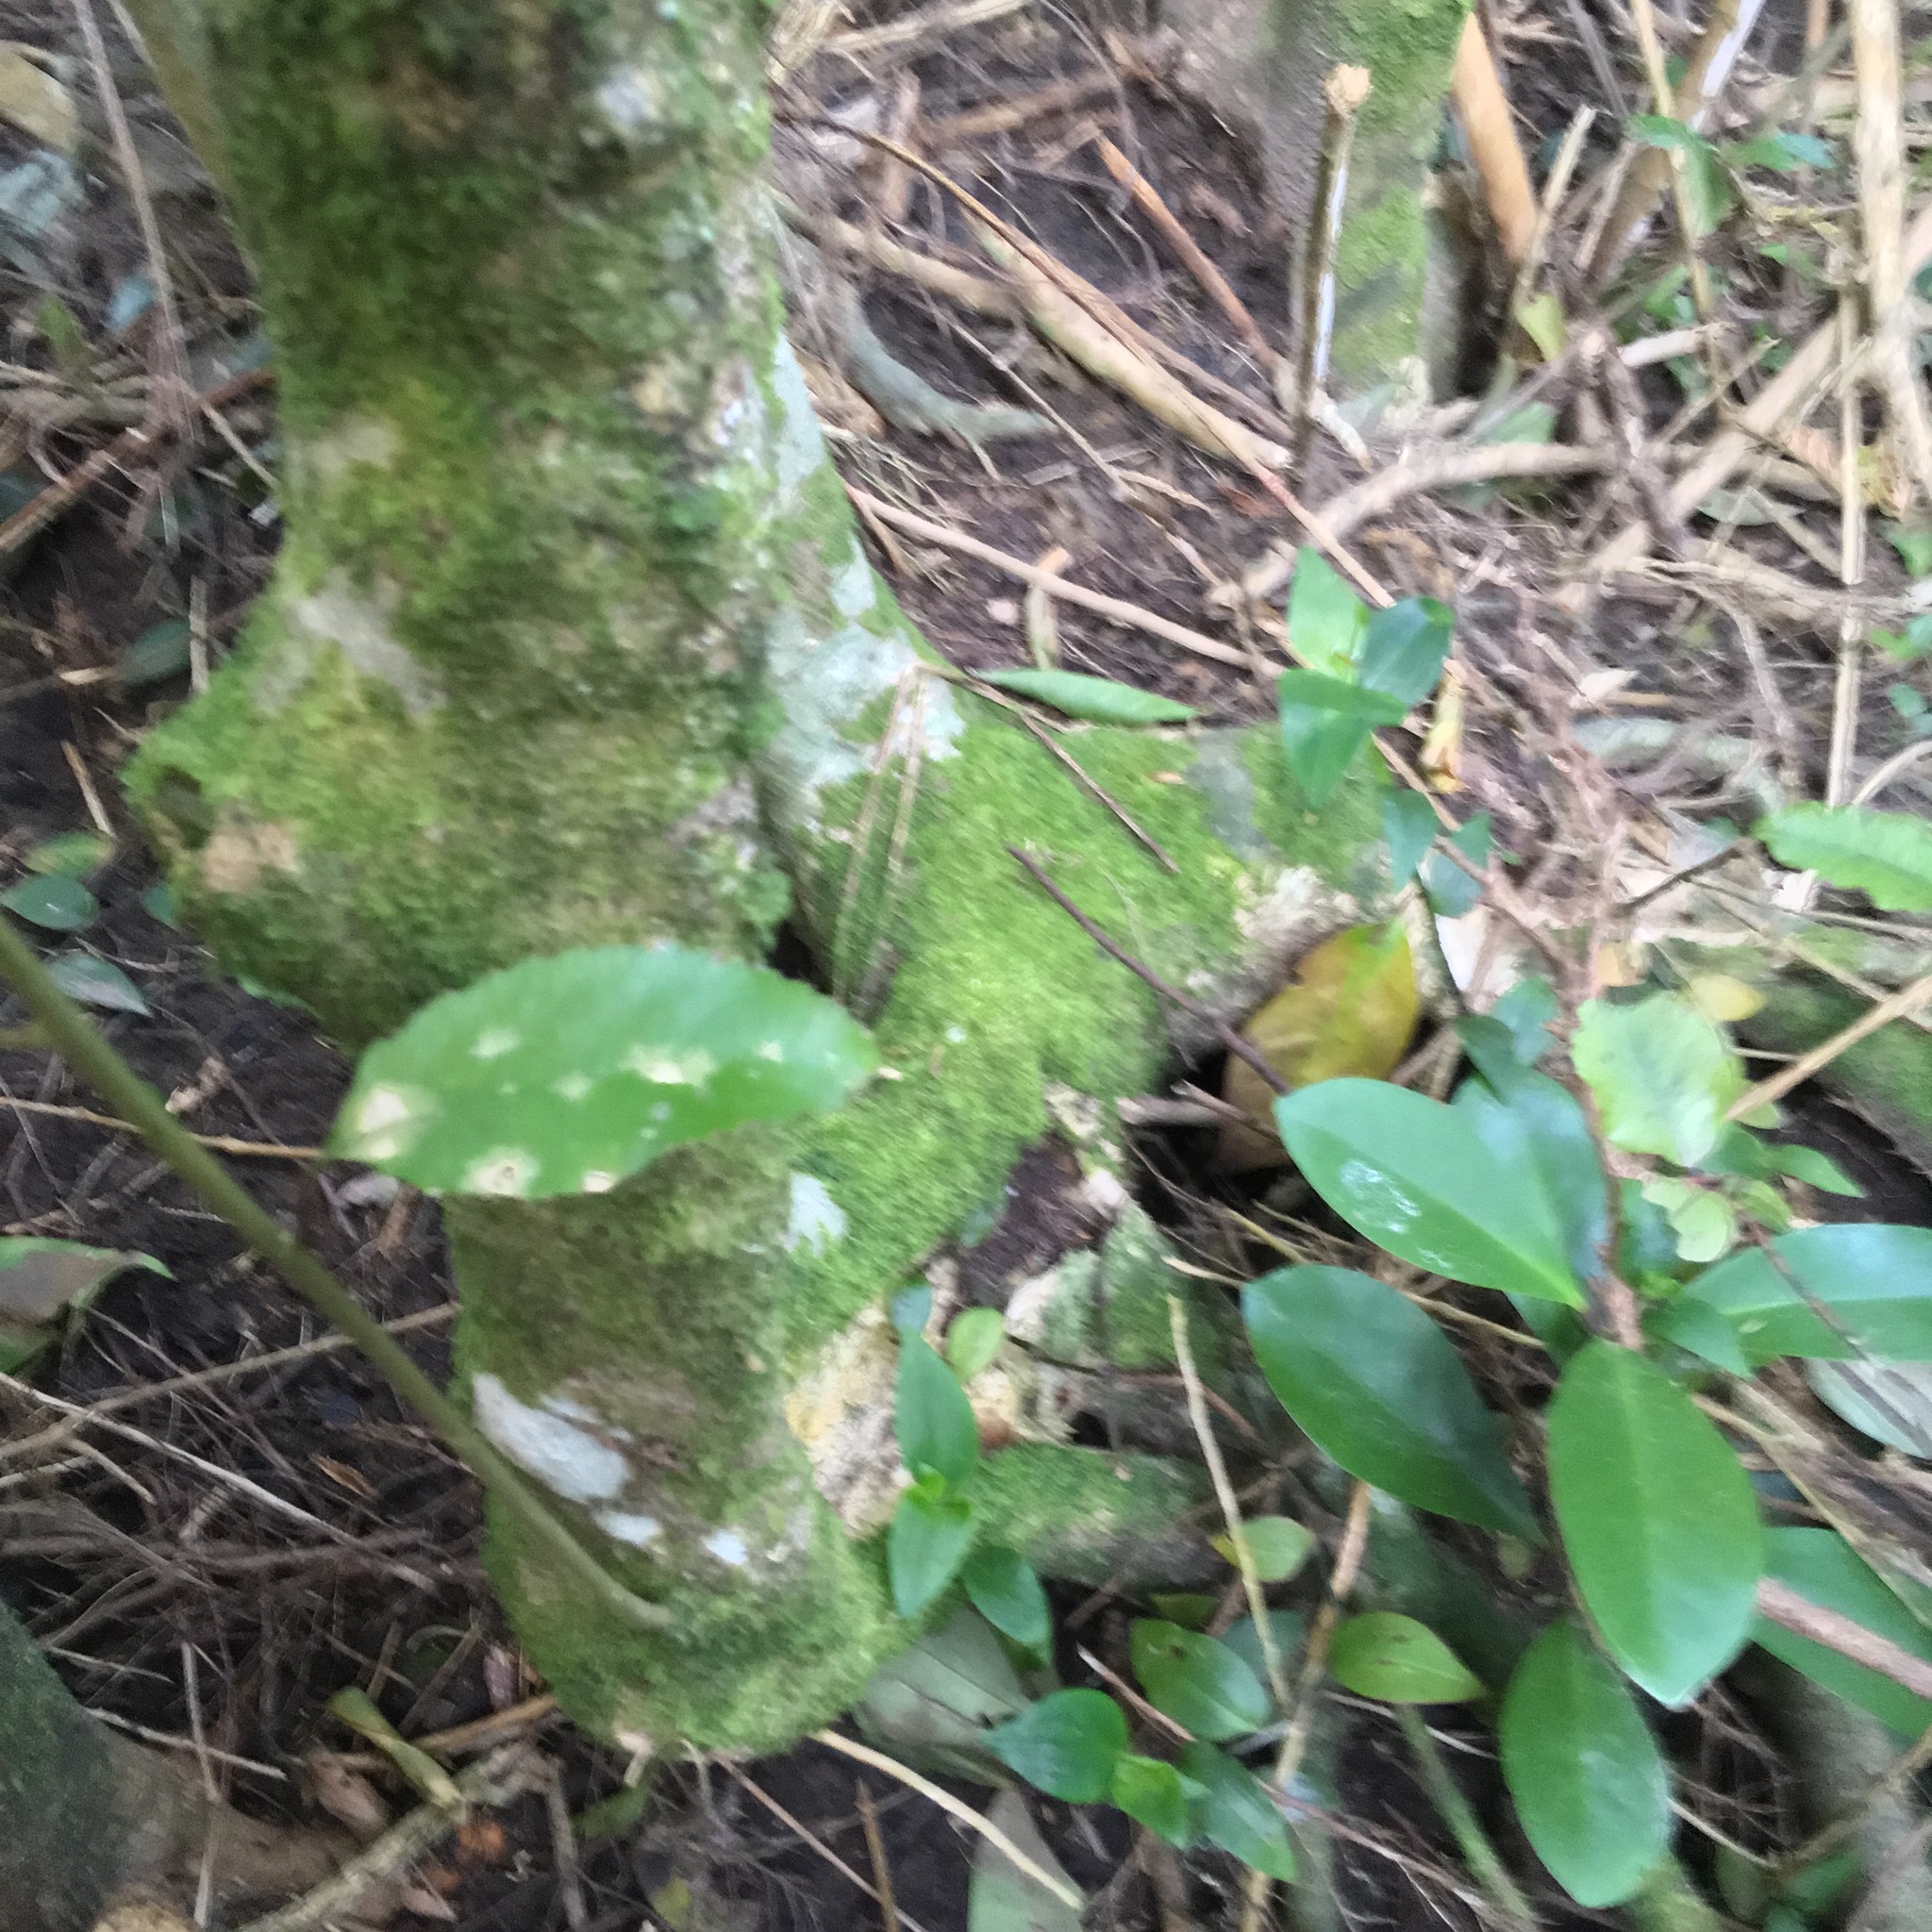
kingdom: Plantae
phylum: Tracheophyta
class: Magnoliopsida
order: Cucurbitales
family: Corynocarpaceae
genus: Corynocarpus
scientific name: Corynocarpus laevigatus
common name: New zealand laurel
